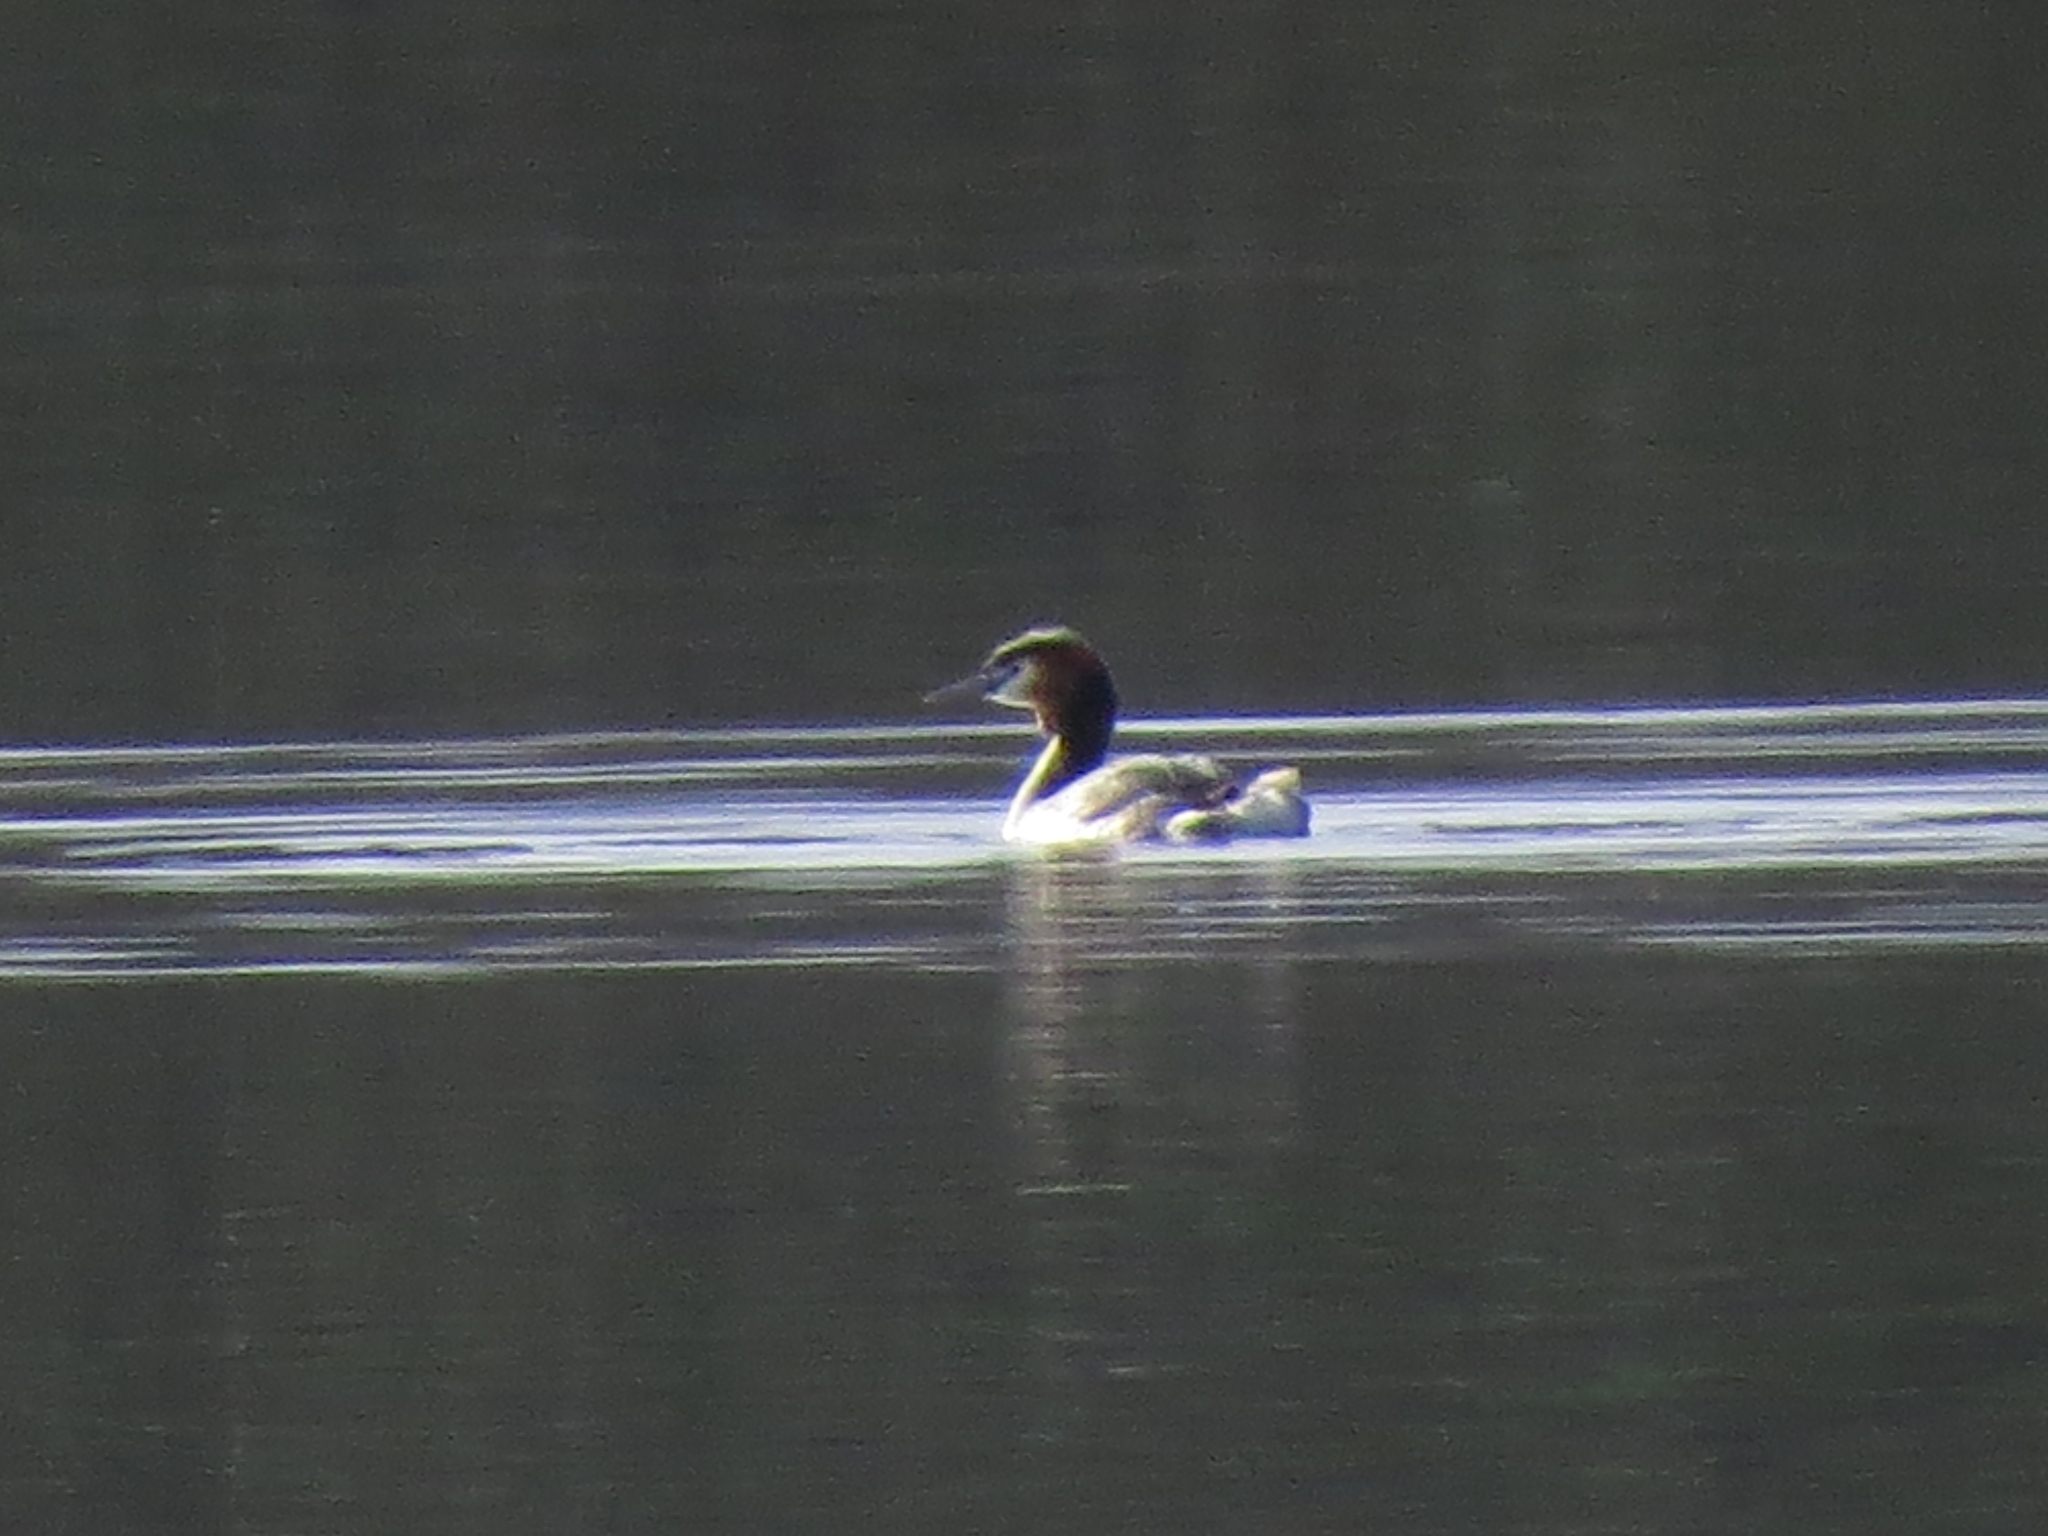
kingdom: Animalia
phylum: Chordata
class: Aves
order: Podicipediformes
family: Podicipedidae
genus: Podiceps
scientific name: Podiceps cristatus
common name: Great crested grebe
